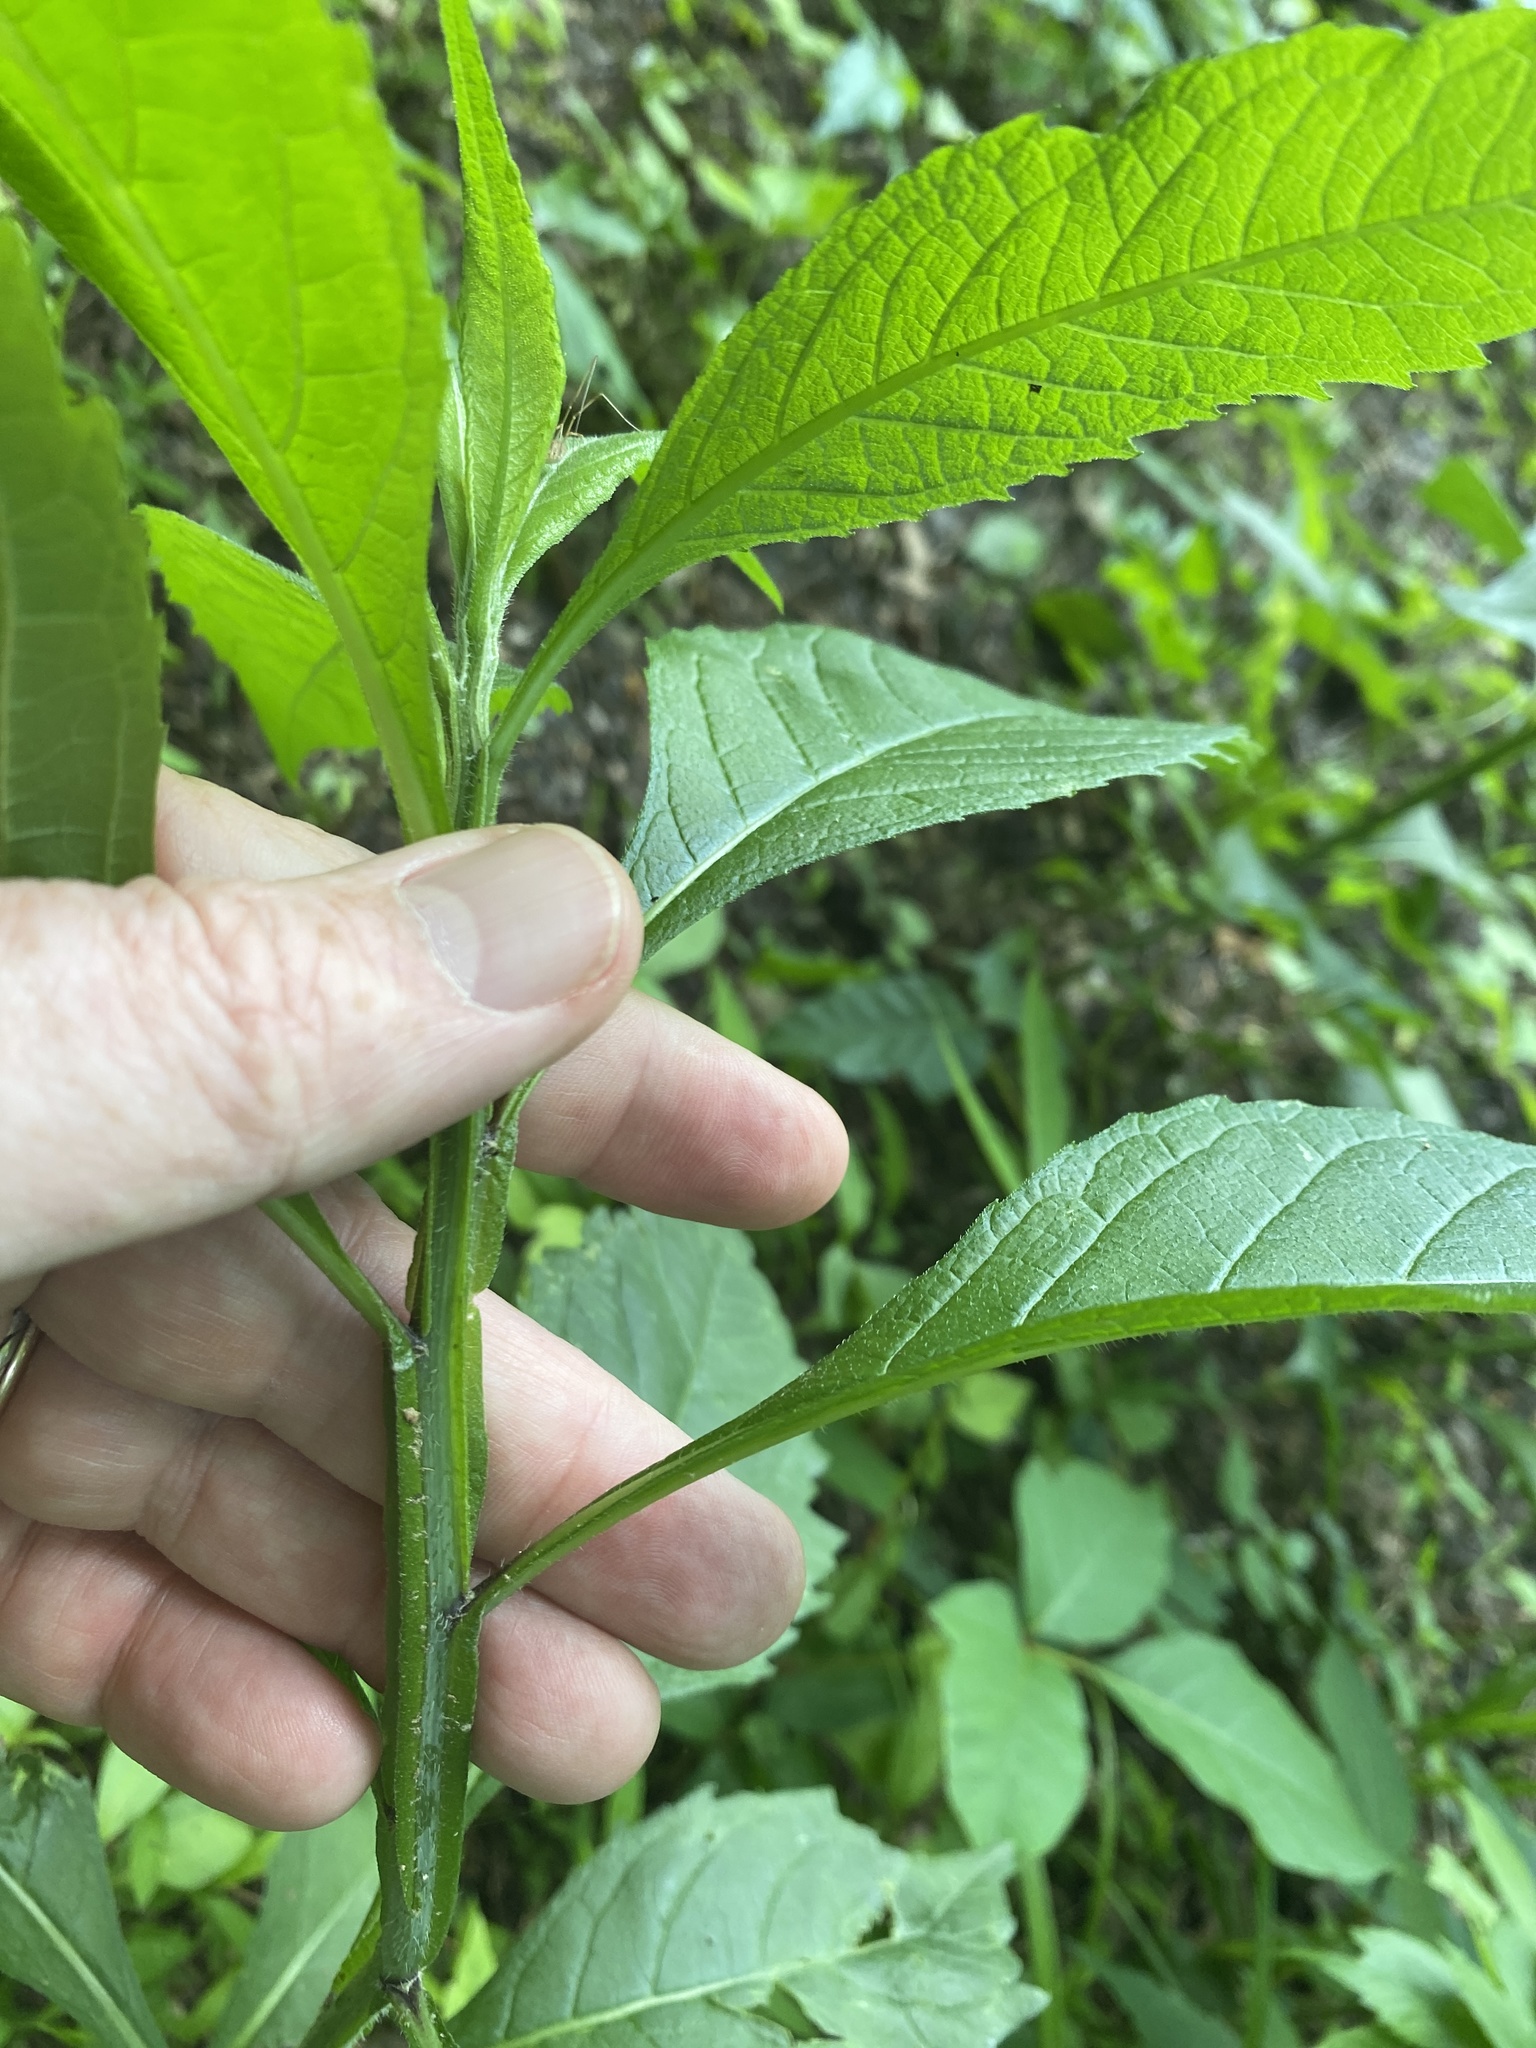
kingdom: Plantae
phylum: Tracheophyta
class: Magnoliopsida
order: Asterales
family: Asteraceae
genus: Verbesina
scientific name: Verbesina alternifolia
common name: Wingstem
